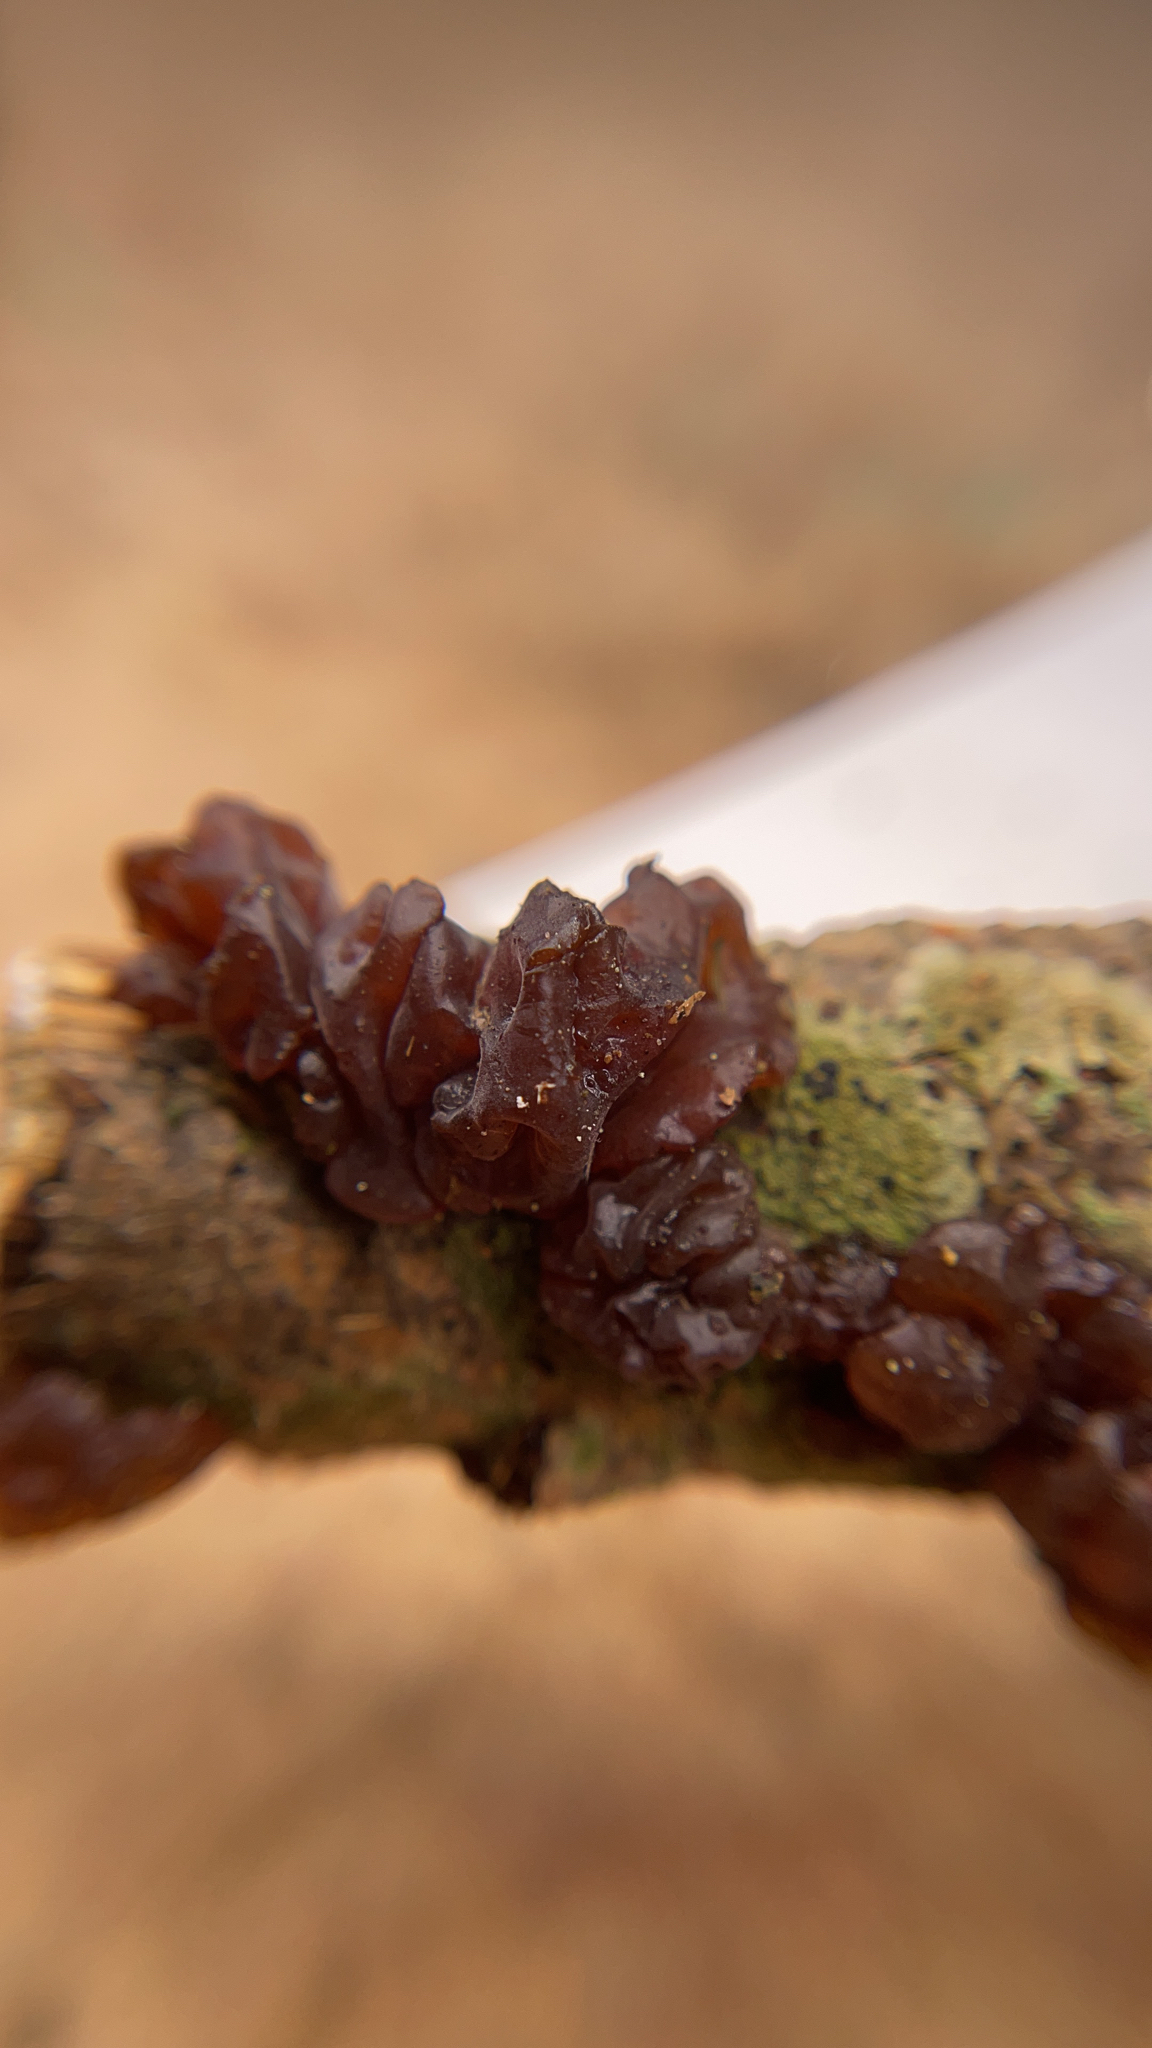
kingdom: Fungi
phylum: Basidiomycota
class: Agaricomycetes
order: Auriculariales
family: Auriculariaceae
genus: Exidia
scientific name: Exidia
